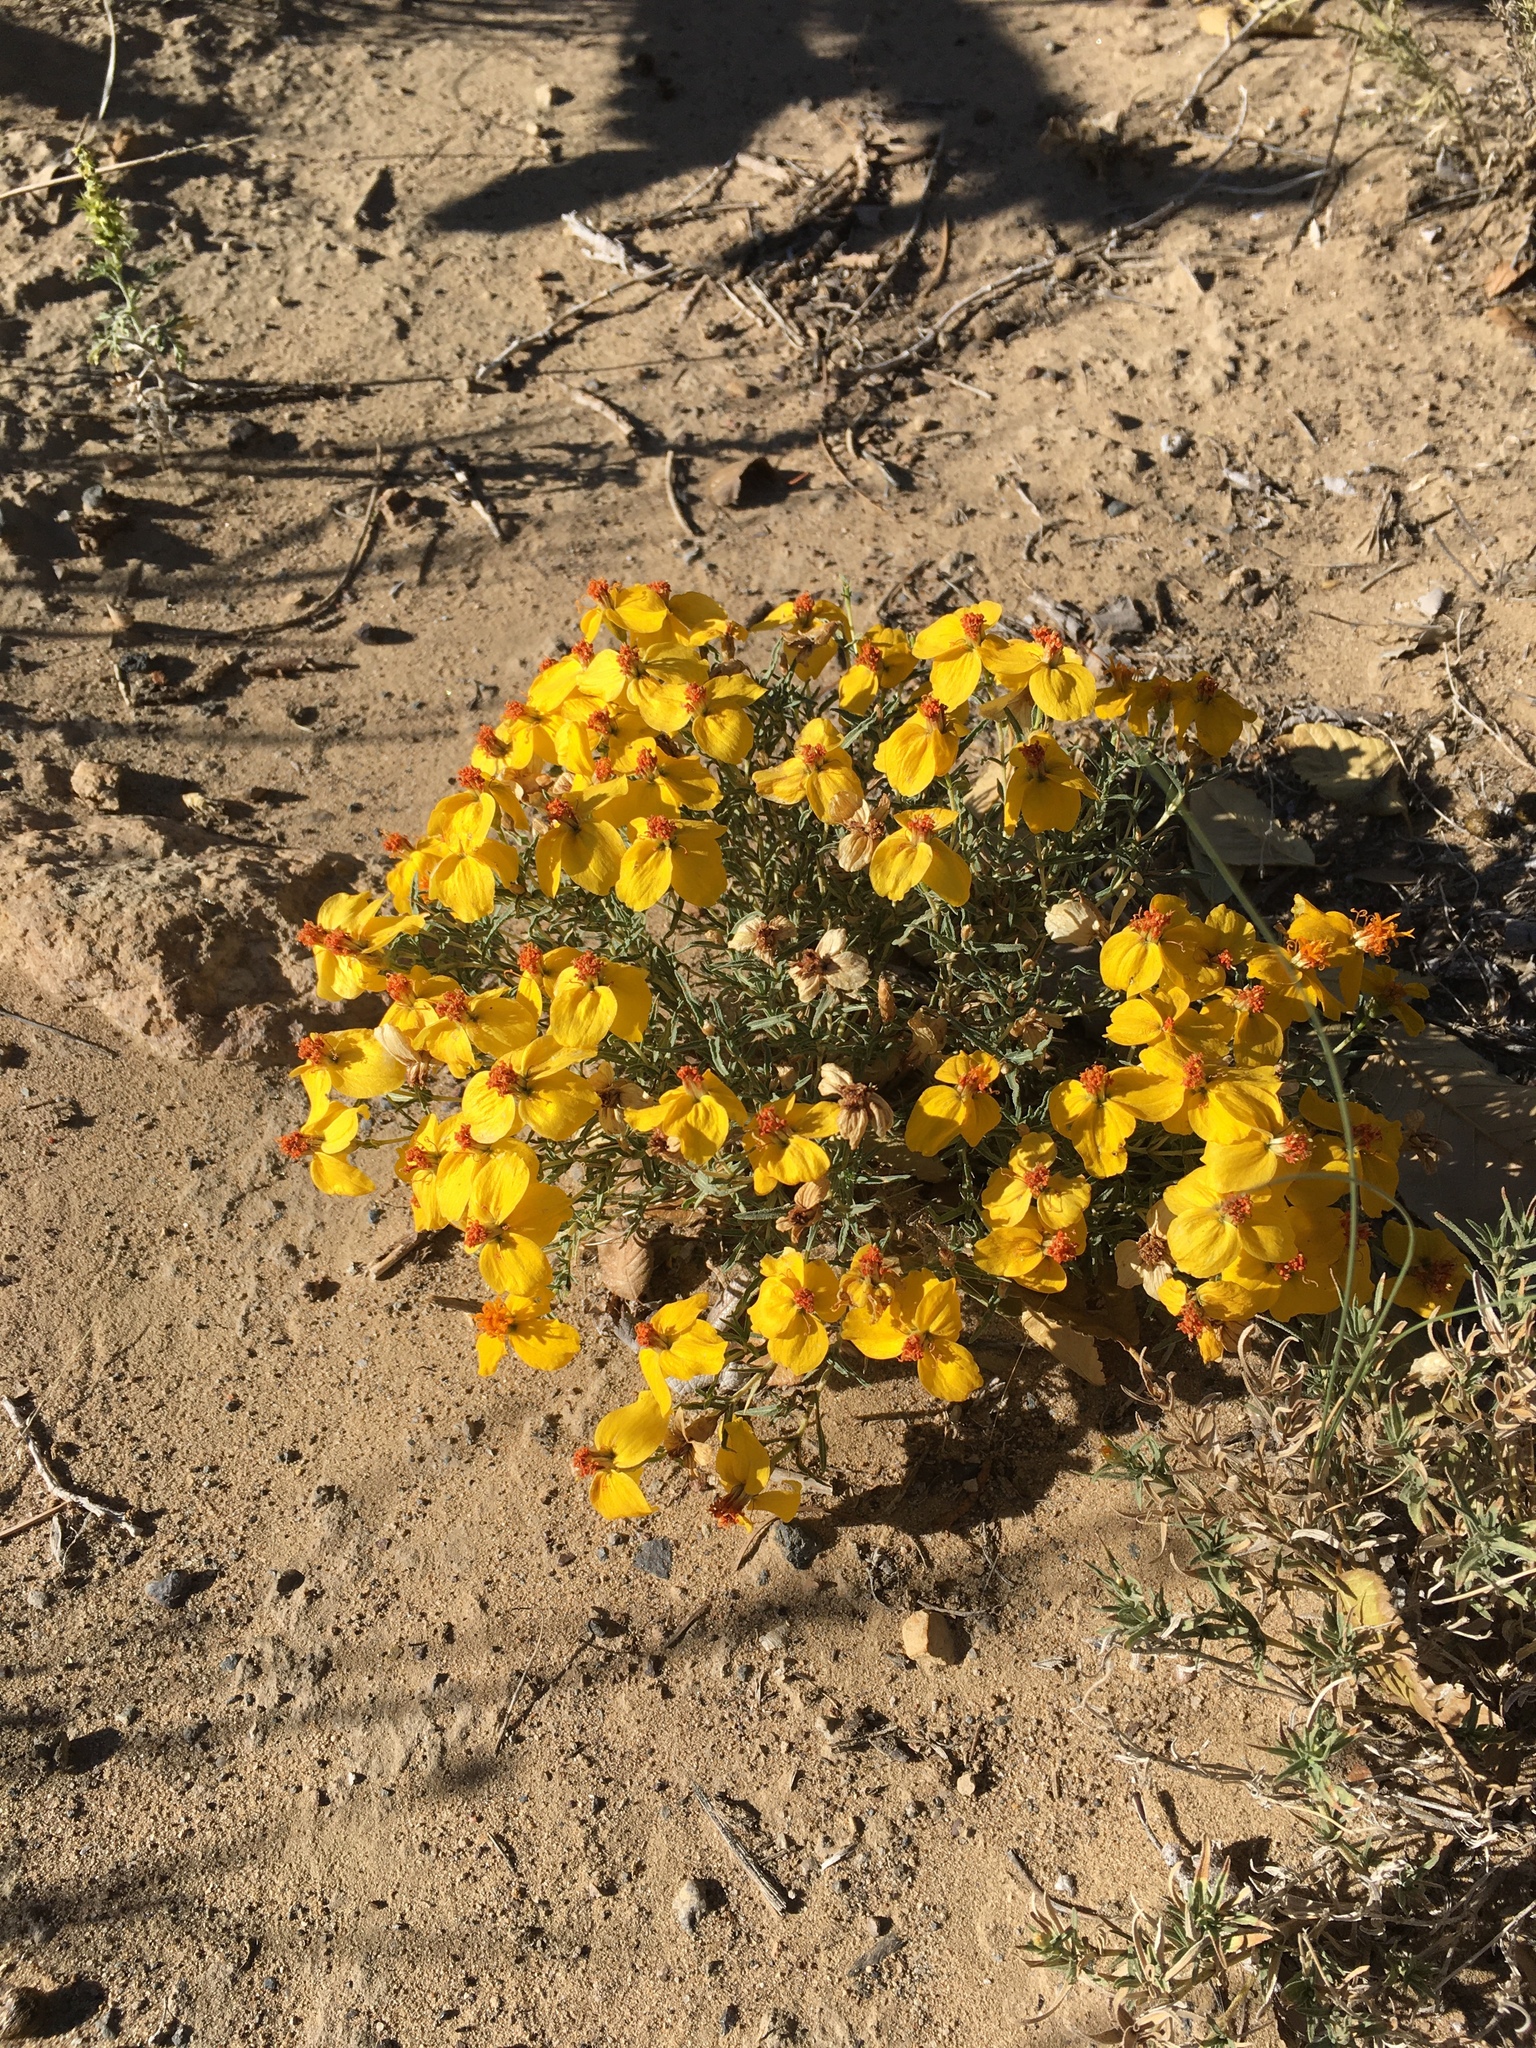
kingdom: Plantae
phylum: Tracheophyta
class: Magnoliopsida
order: Asterales
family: Asteraceae
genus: Zinnia
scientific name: Zinnia grandiflora
